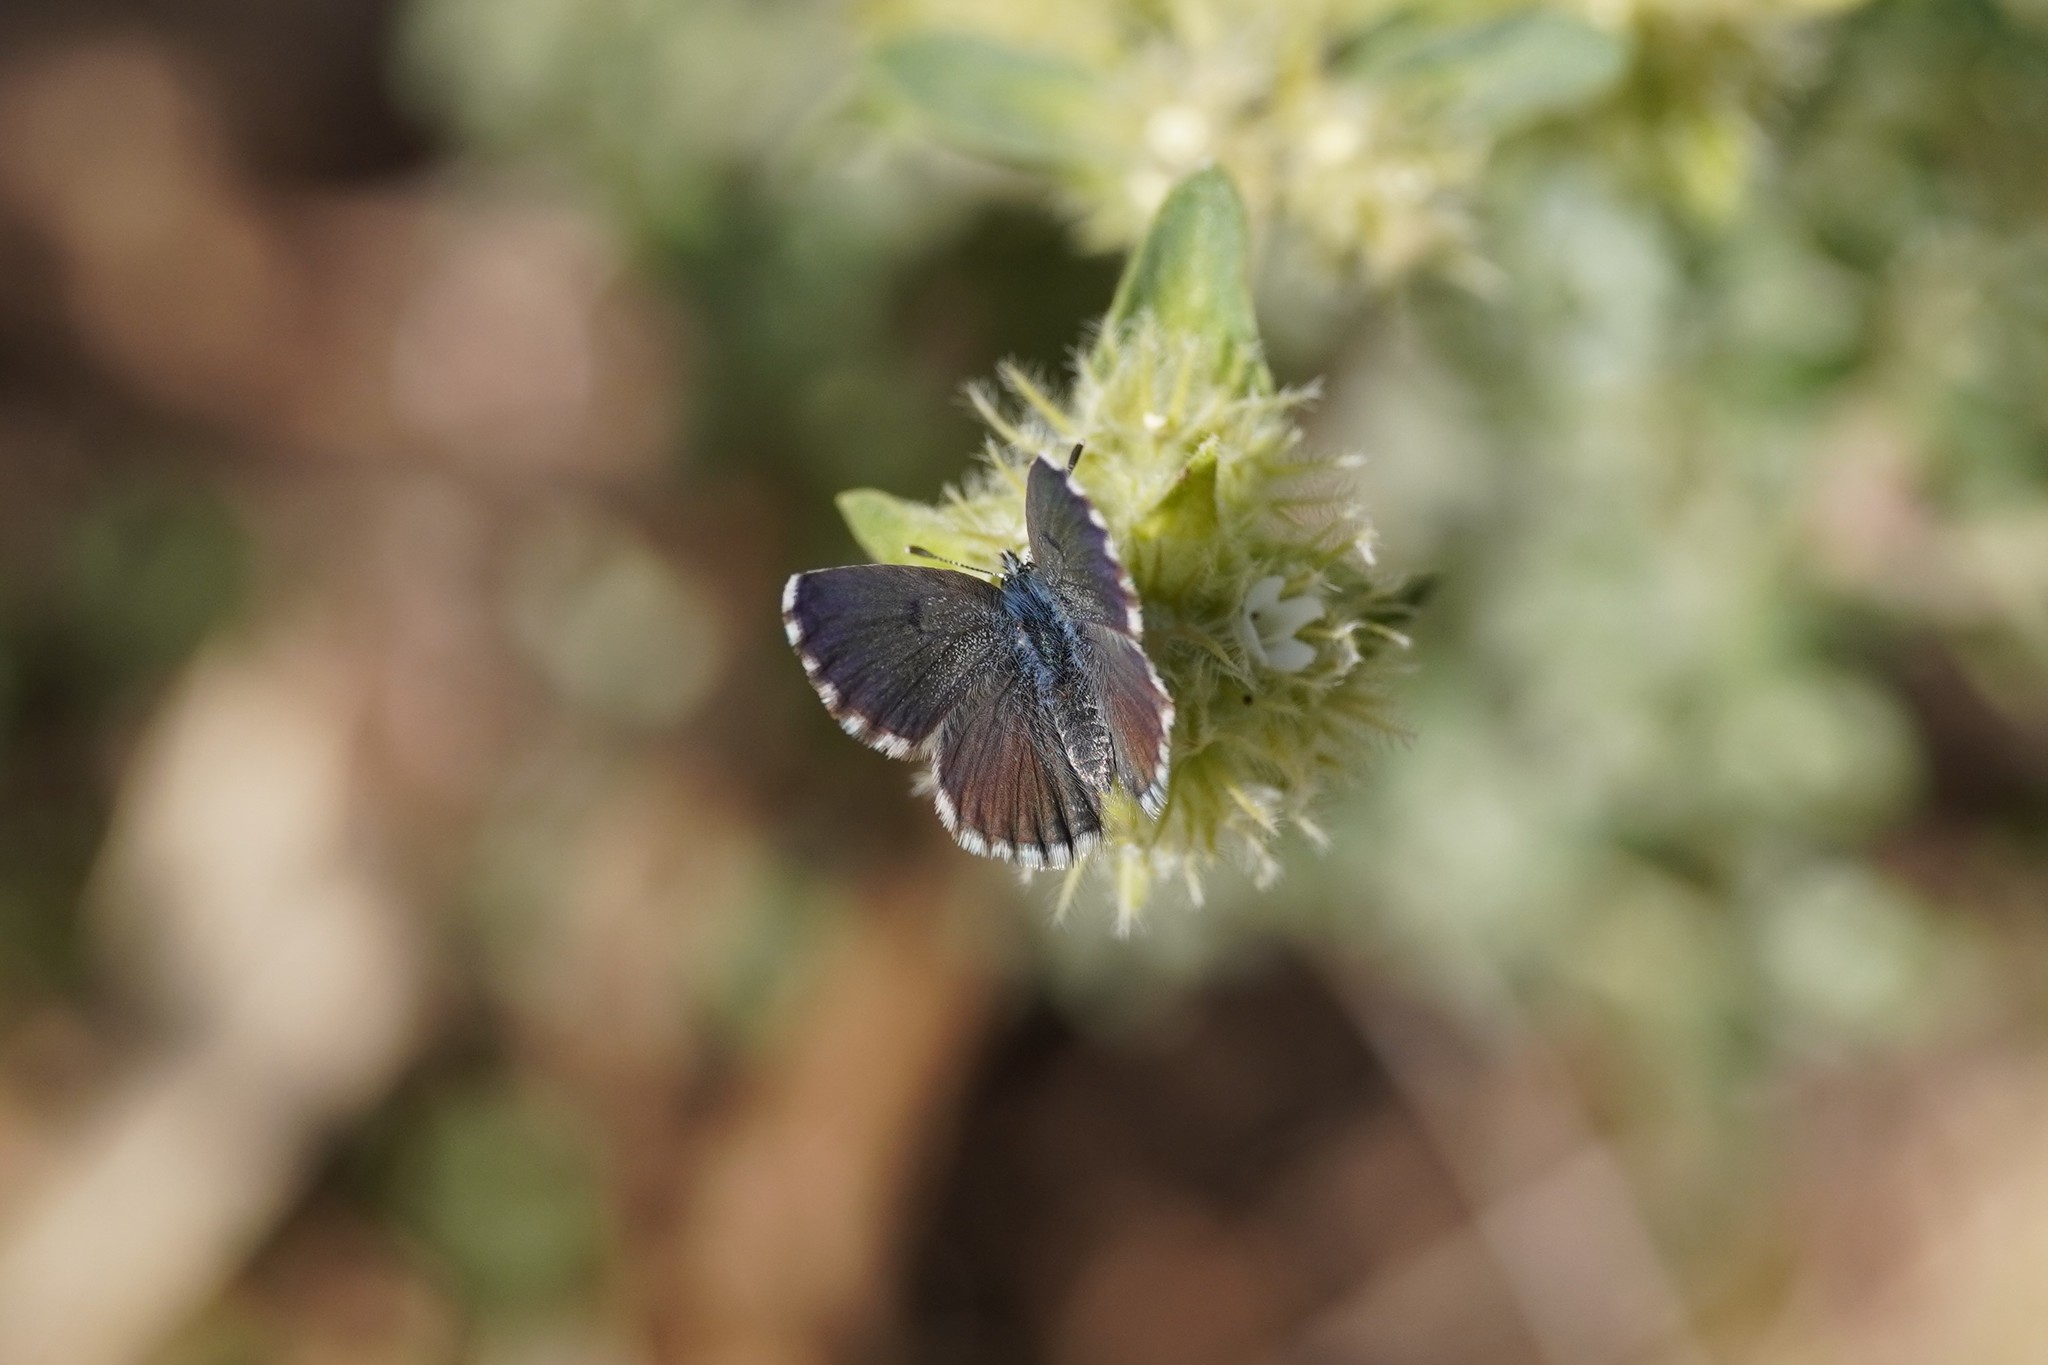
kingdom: Animalia
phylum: Arthropoda
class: Insecta
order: Lepidoptera
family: Lycaenidae
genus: Pseudophilotes
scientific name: Pseudophilotes baton
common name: Baton blue
